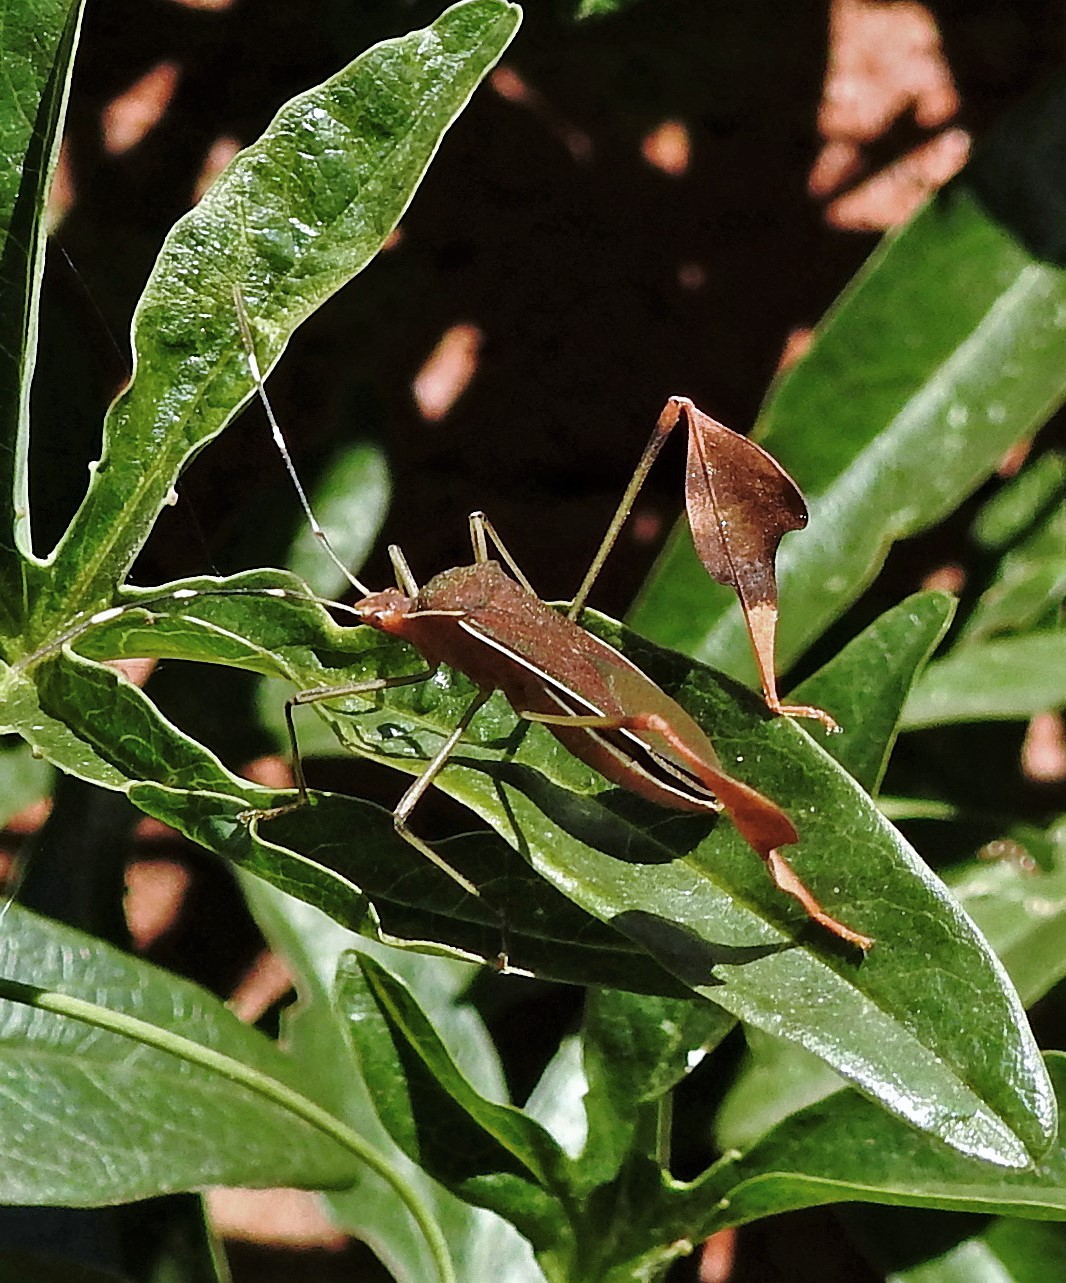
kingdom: Animalia
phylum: Arthropoda
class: Insecta
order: Hemiptera
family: Coreidae
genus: Anisoscelis
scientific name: Anisoscelis marginellus
